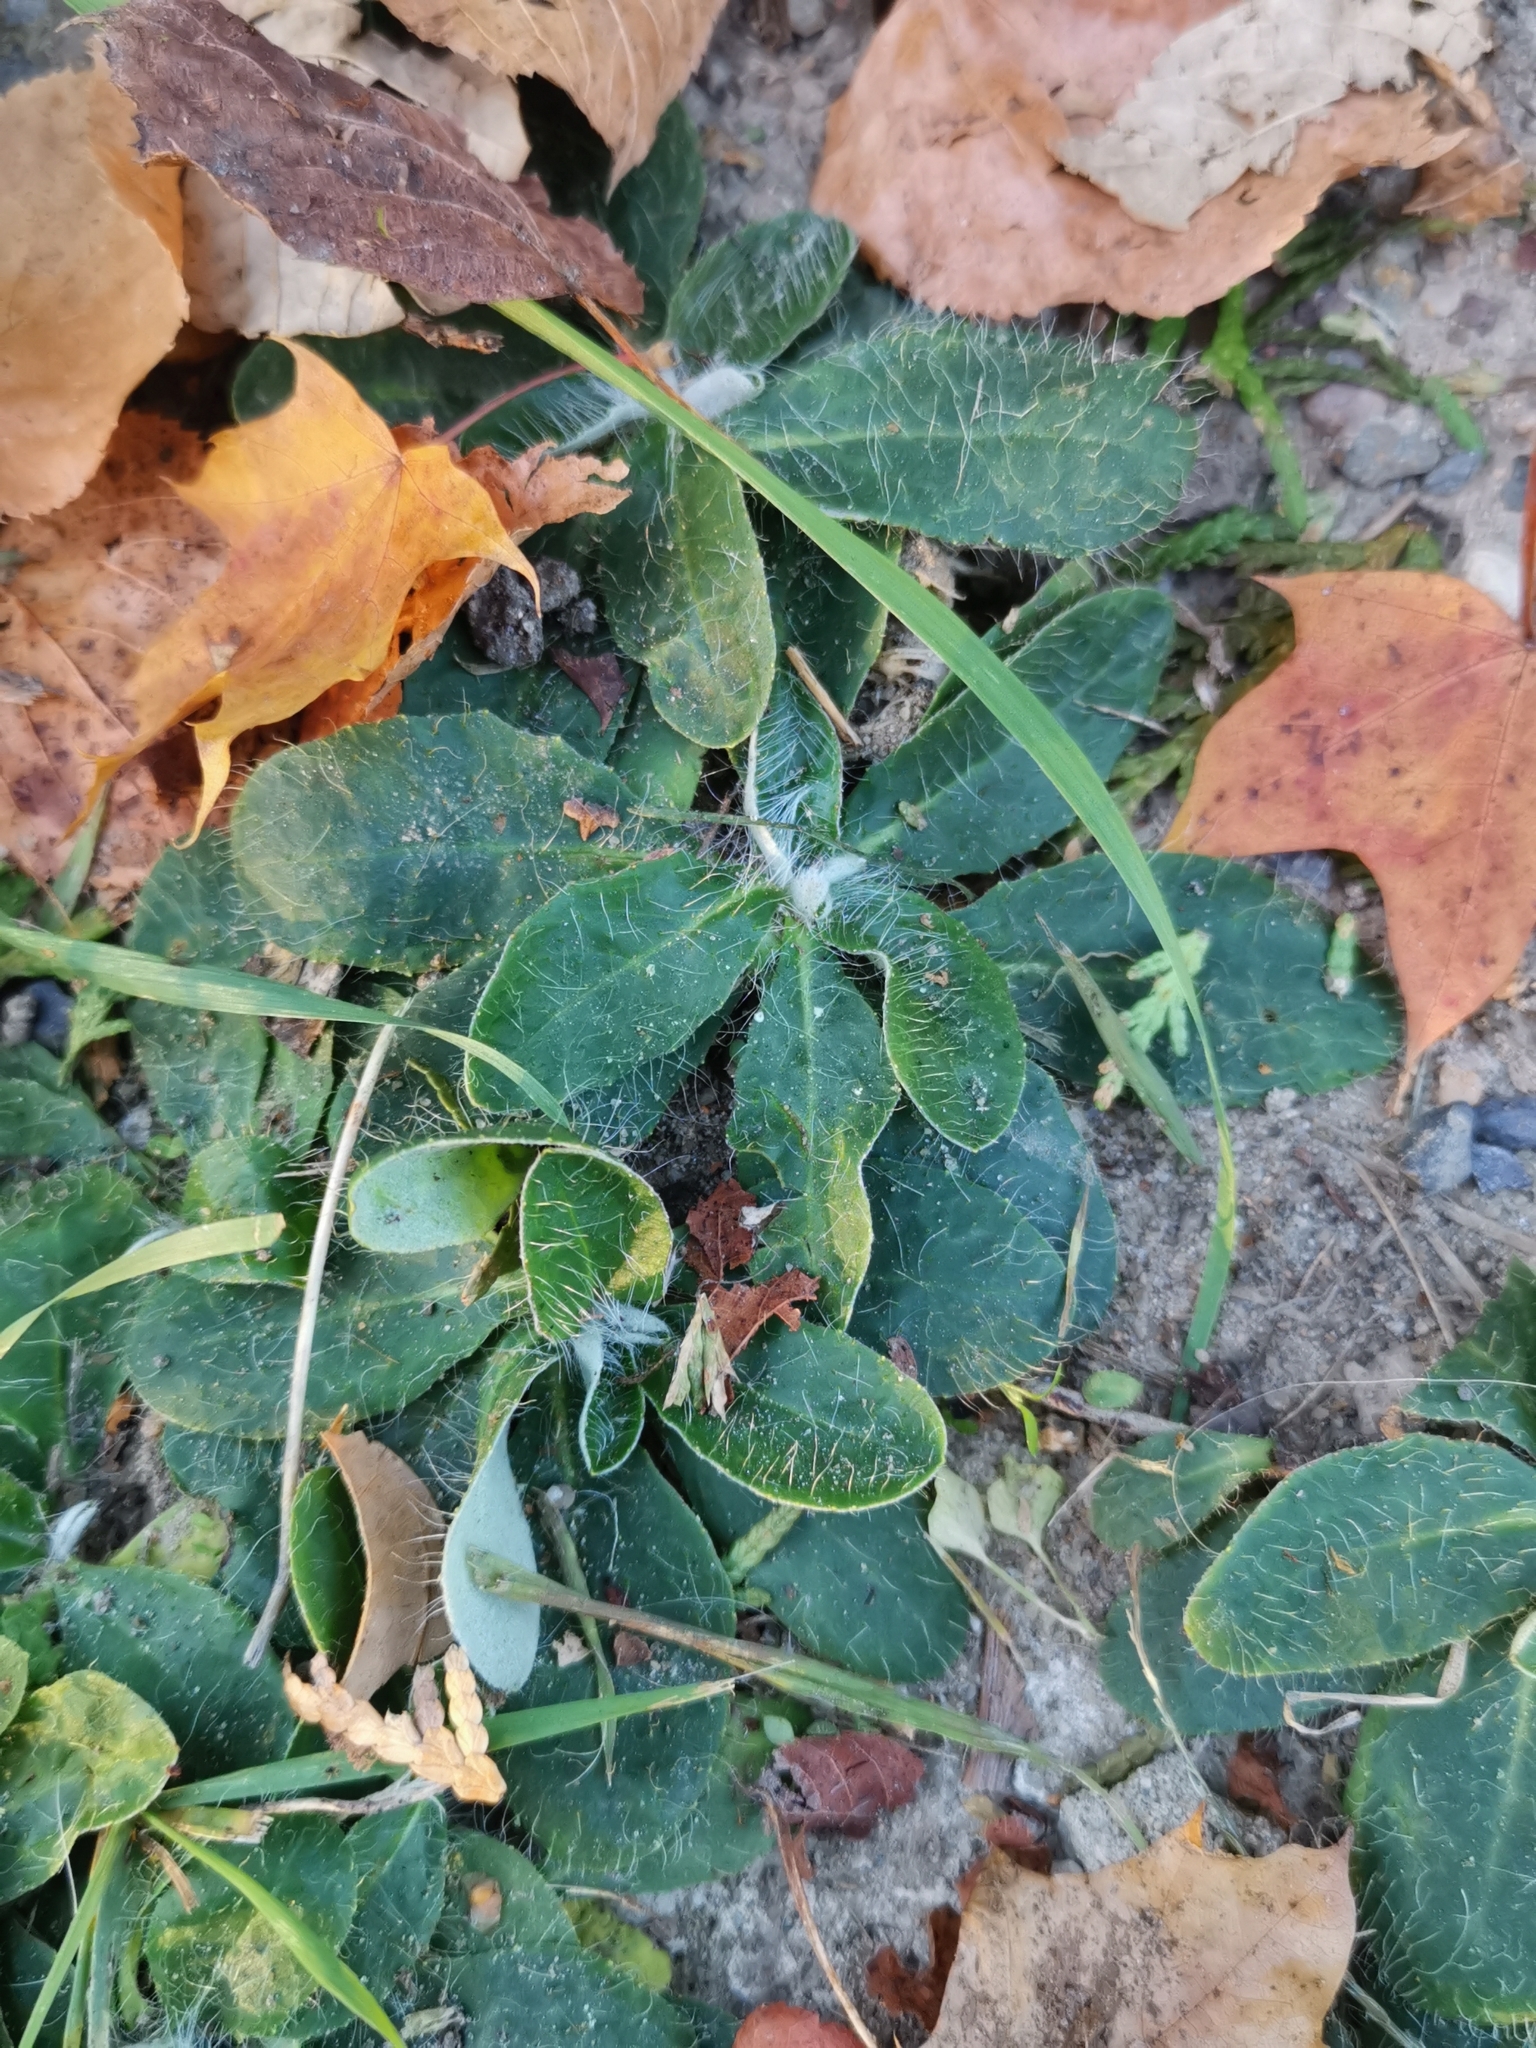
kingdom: Plantae
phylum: Tracheophyta
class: Magnoliopsida
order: Asterales
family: Asteraceae
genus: Pilosella
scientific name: Pilosella officinarum
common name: Mouse-ear hawkweed
